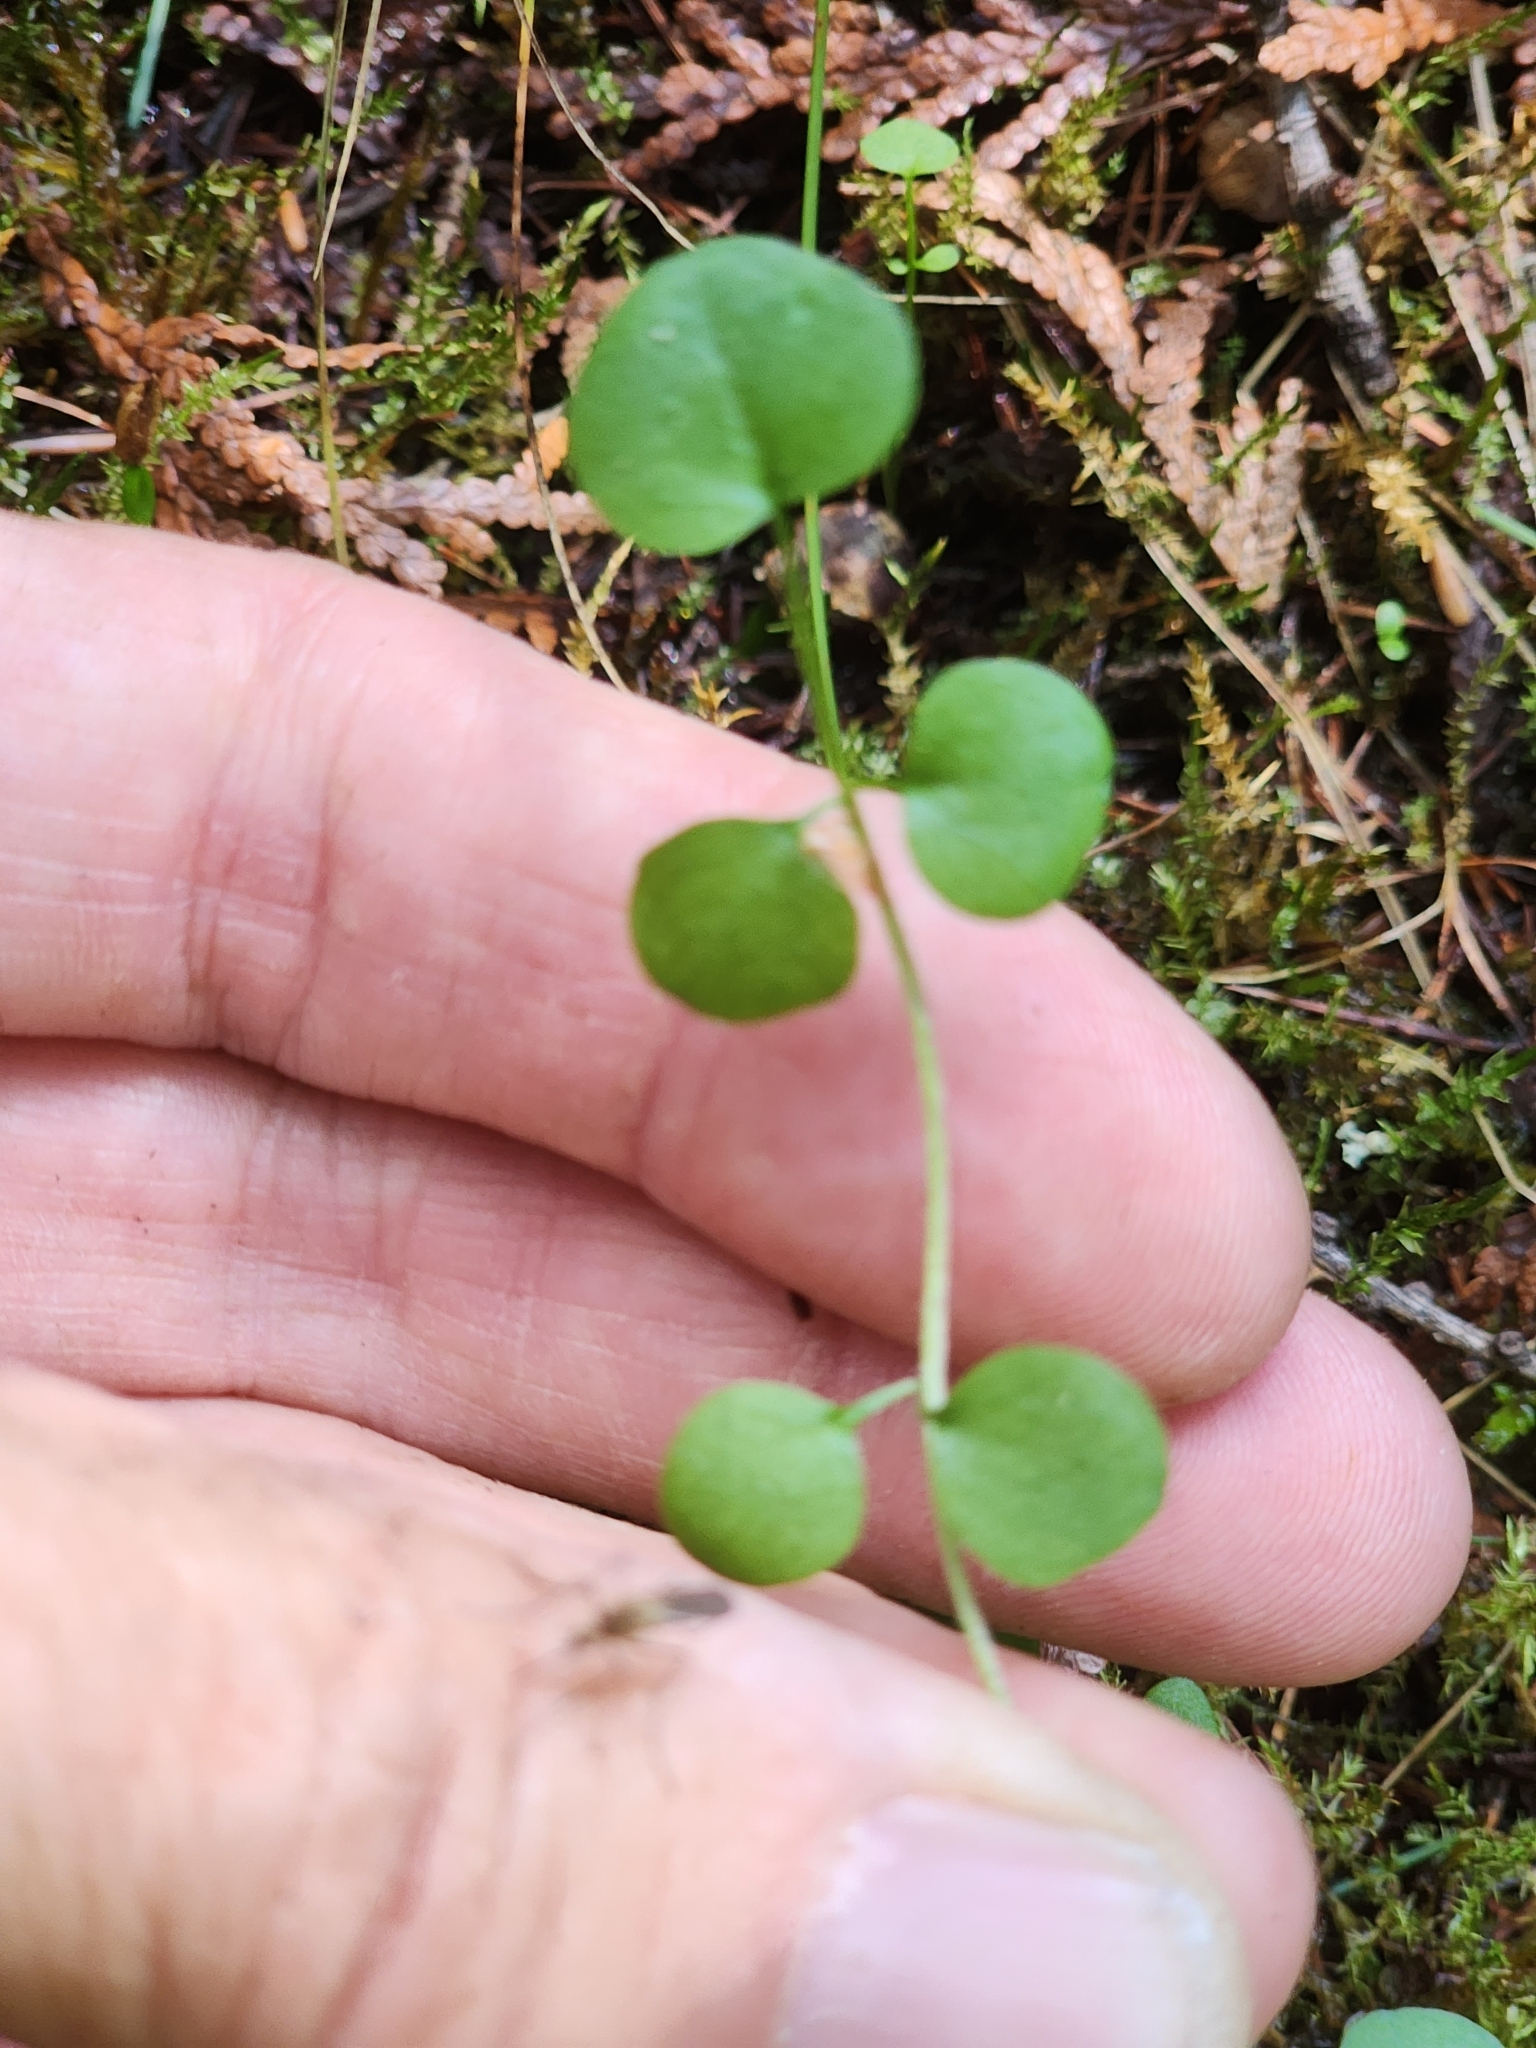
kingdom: Plantae
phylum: Tracheophyta
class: Magnoliopsida
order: Brassicales
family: Brassicaceae
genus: Cardamine
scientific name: Cardamine pratensis
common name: Cuckoo flower
